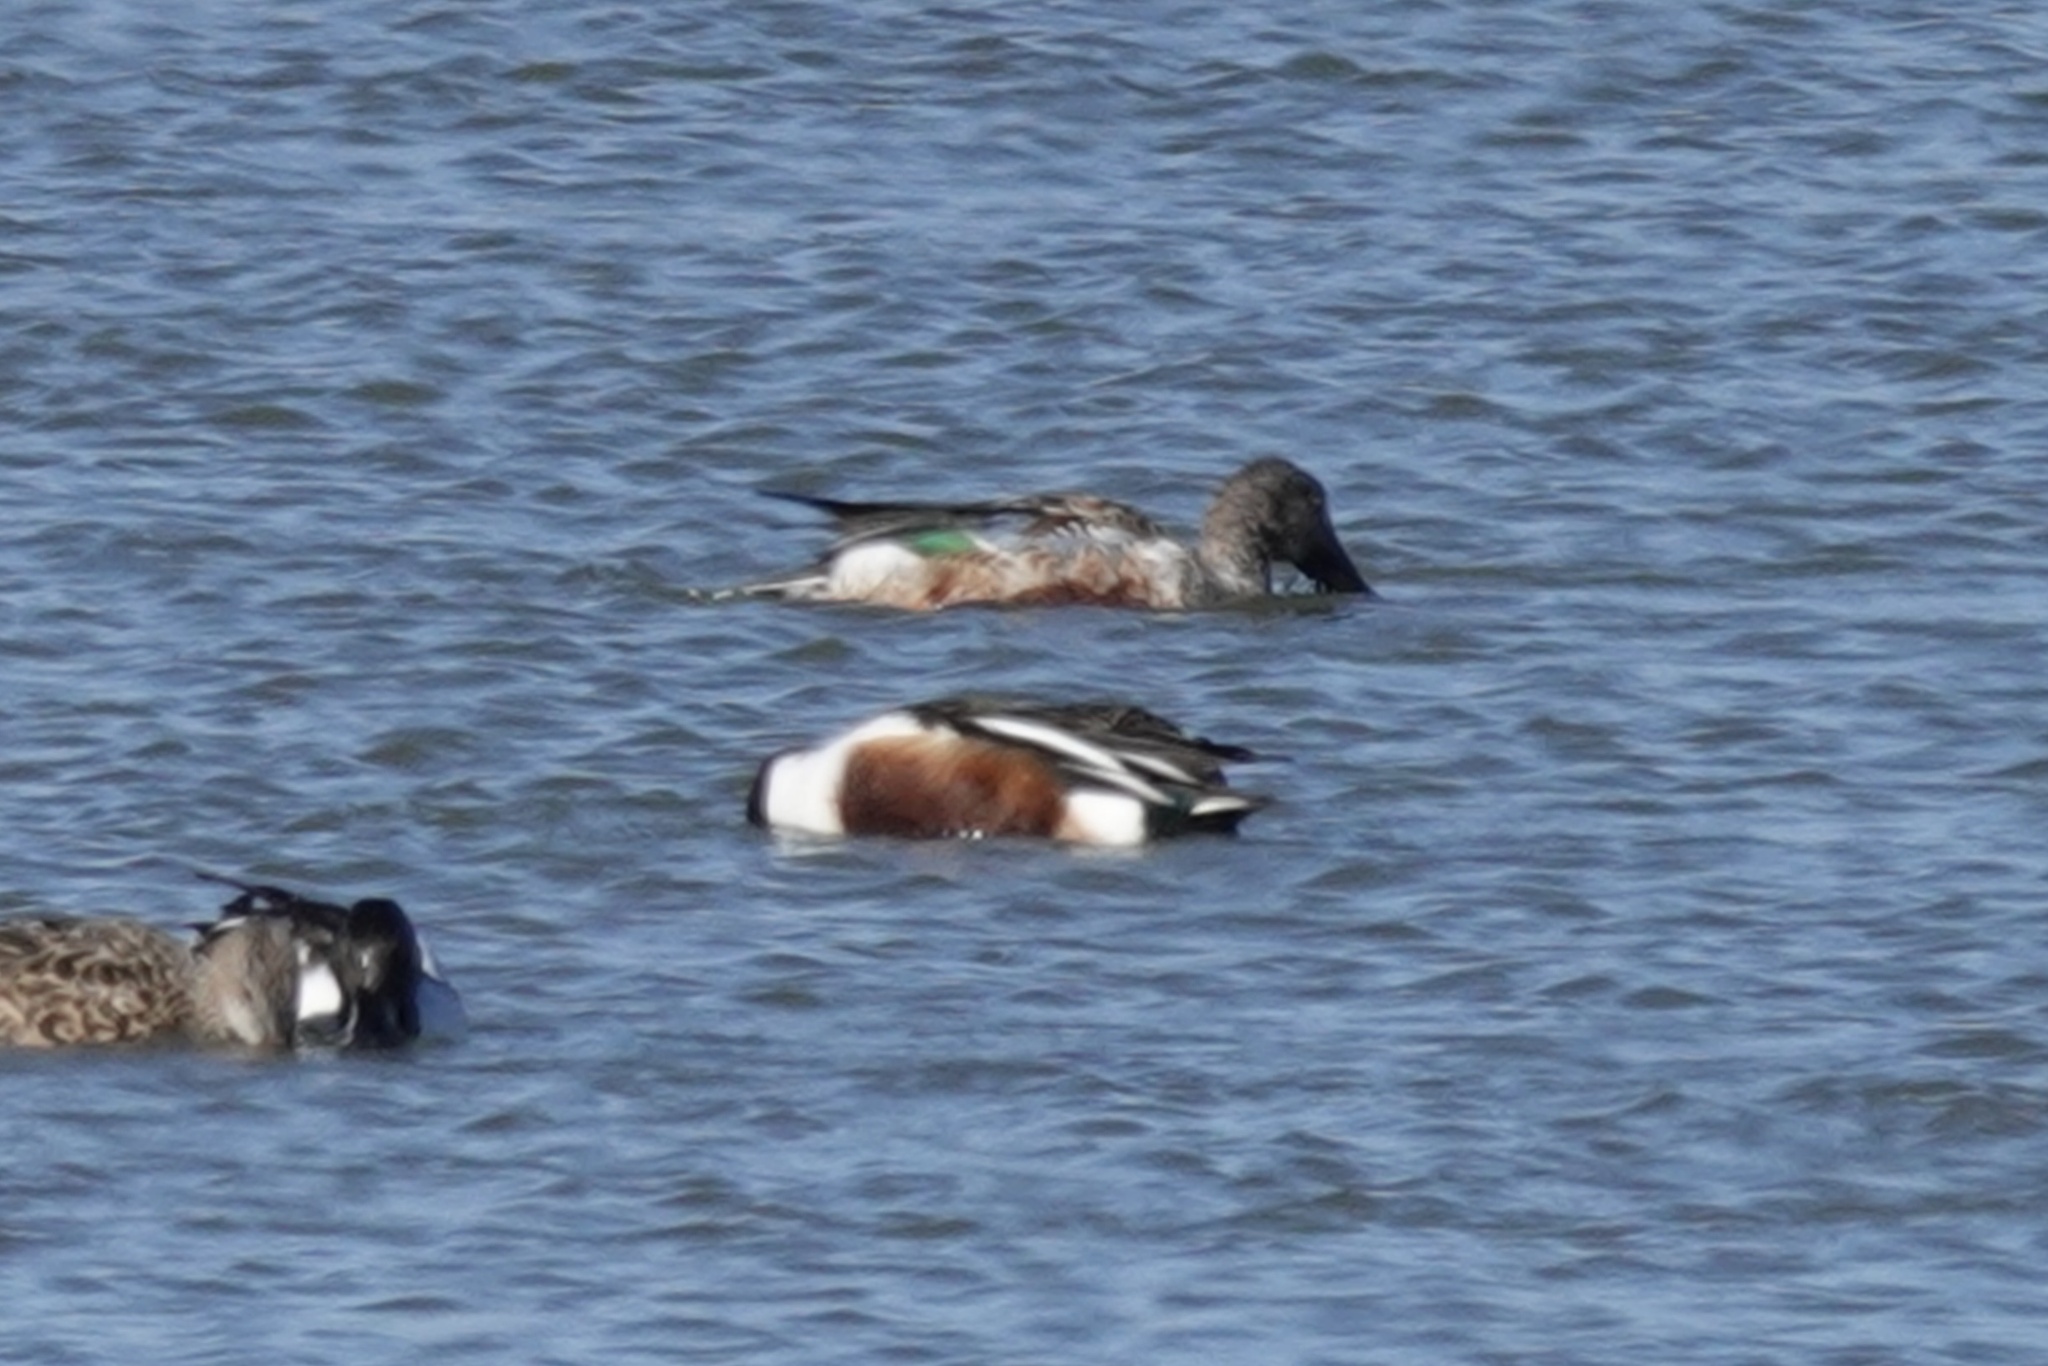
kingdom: Animalia
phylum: Chordata
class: Aves
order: Anseriformes
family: Anatidae
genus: Spatula
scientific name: Spatula clypeata
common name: Northern shoveler
